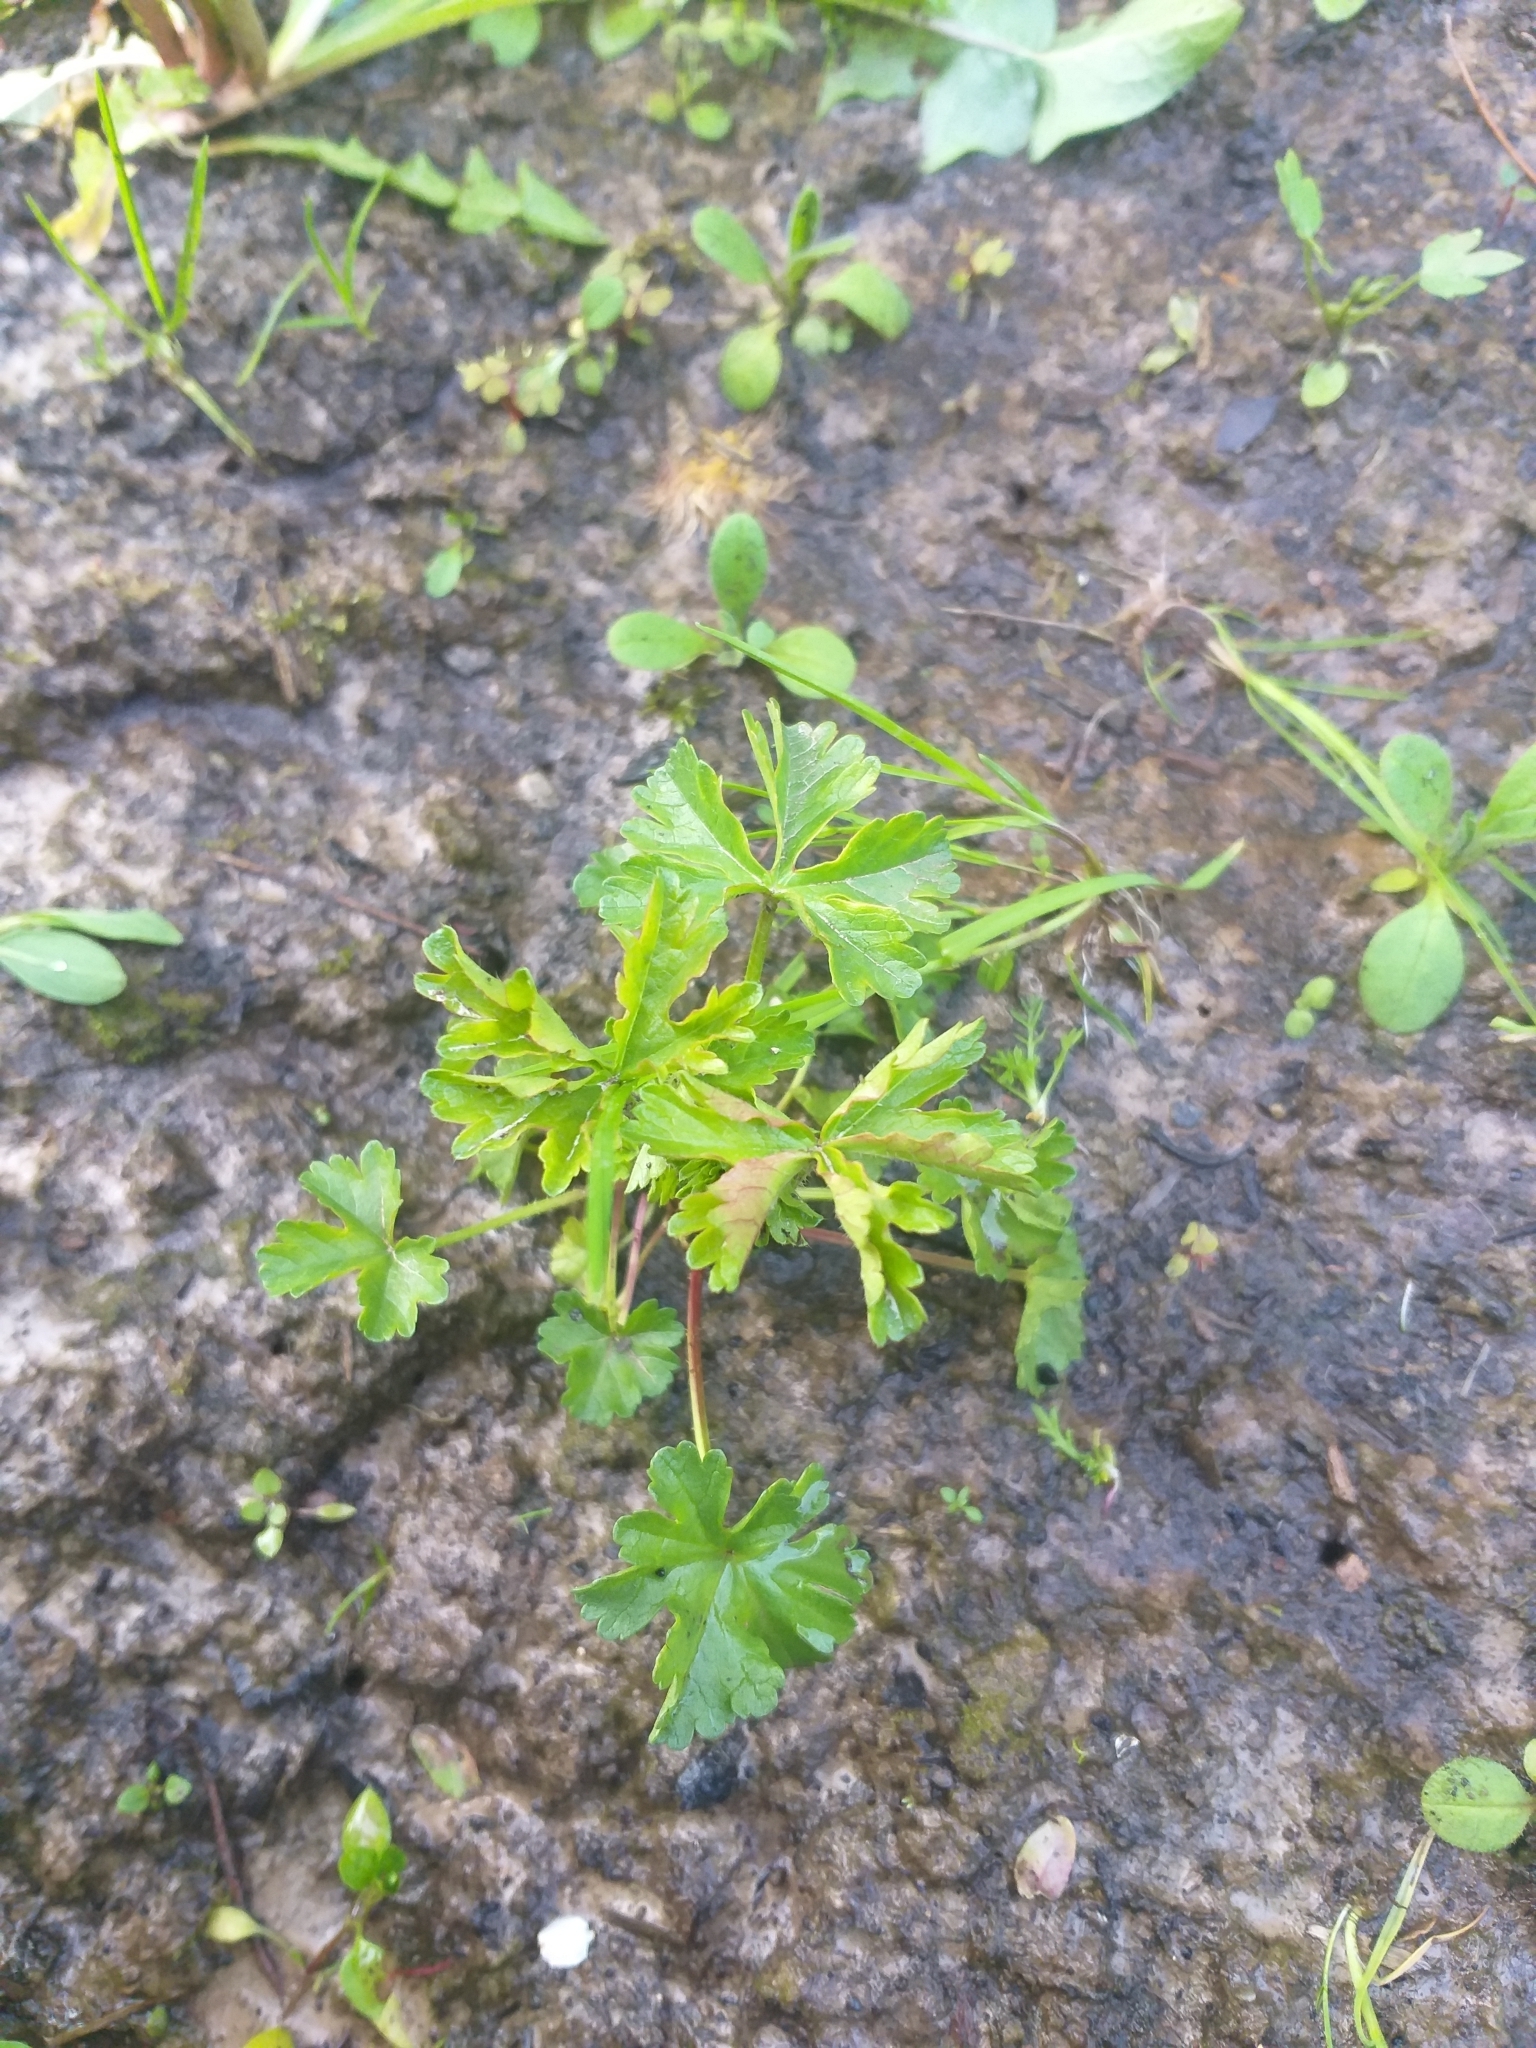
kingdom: Plantae
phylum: Tracheophyta
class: Magnoliopsida
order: Malvales
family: Malvaceae
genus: Malva
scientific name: Malva moschata
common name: Musk mallow
